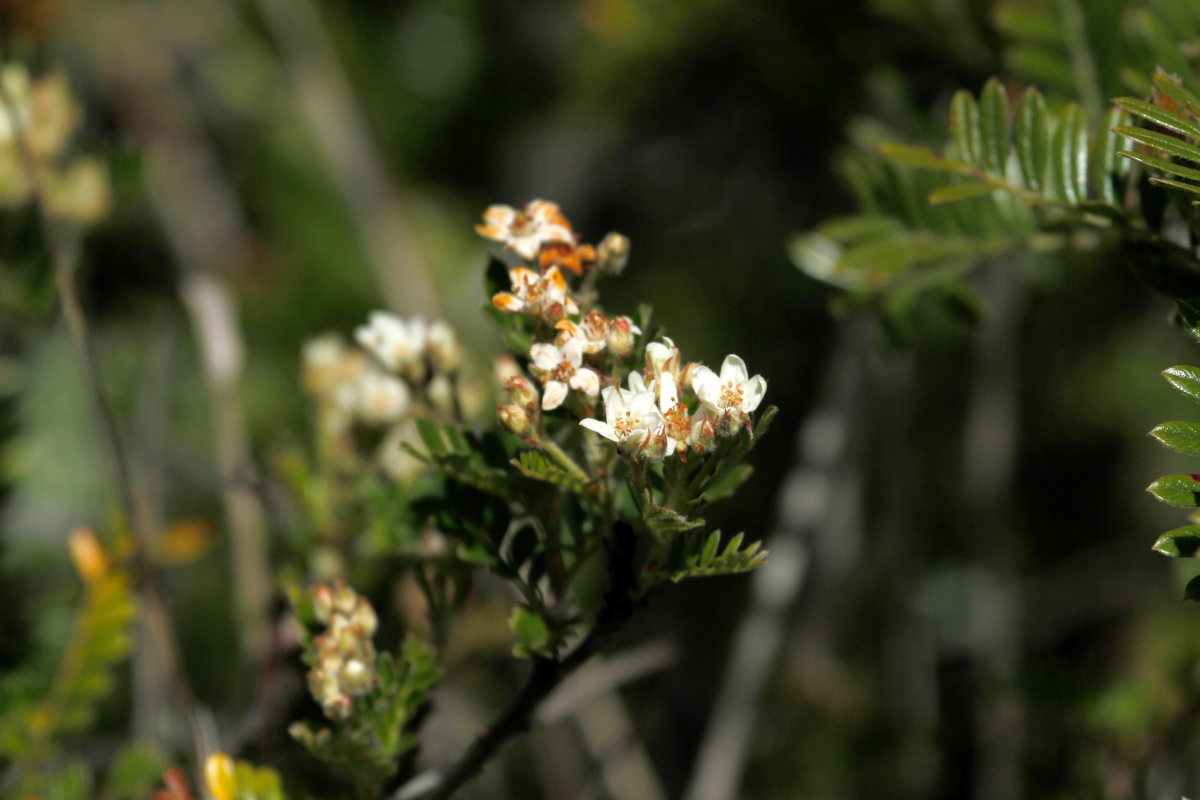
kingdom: Plantae
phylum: Tracheophyta
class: Magnoliopsida
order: Rosales
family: Rosaceae
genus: Osteomeles
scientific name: Osteomeles anthyllidifolia
